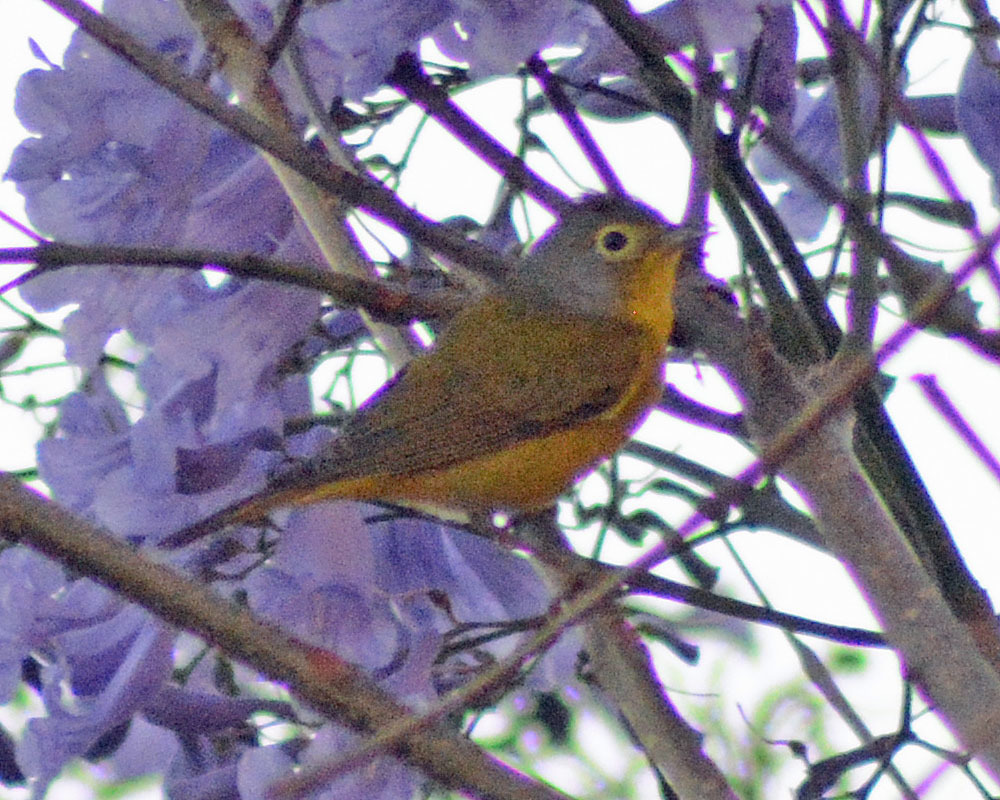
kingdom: Animalia
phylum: Chordata
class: Aves
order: Passeriformes
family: Parulidae
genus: Leiothlypis
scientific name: Leiothlypis ruficapilla
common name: Nashville warbler
